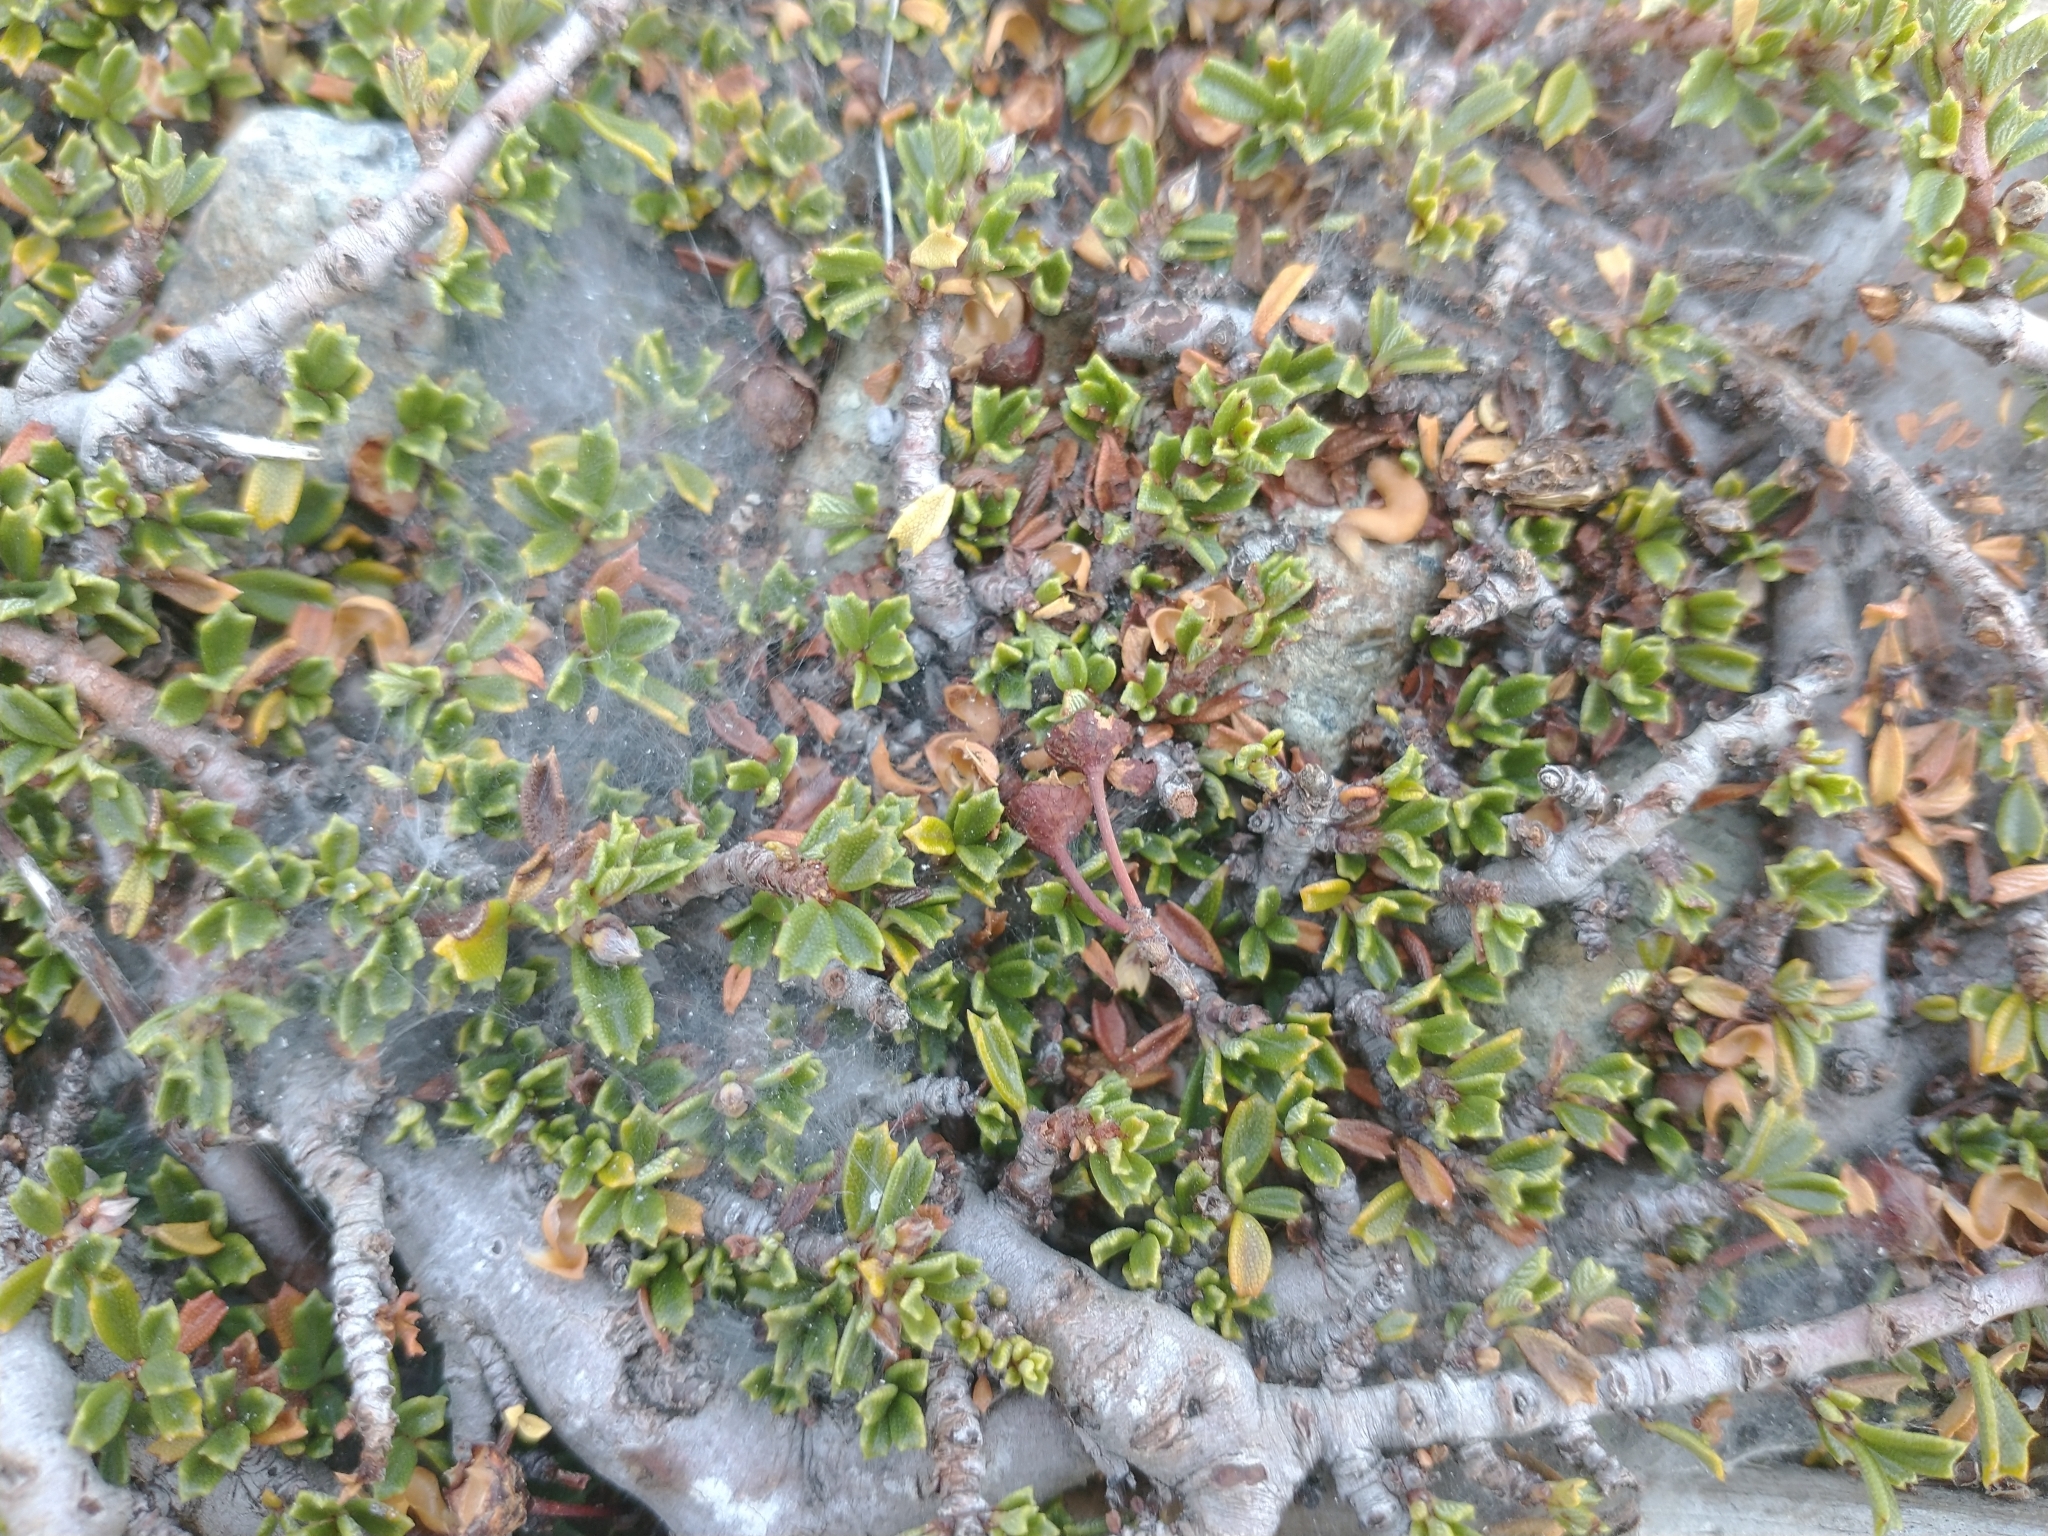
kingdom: Plantae
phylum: Tracheophyta
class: Magnoliopsida
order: Rosales
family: Rhamnaceae
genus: Ceanothus
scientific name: Ceanothus pumilus
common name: Siskiyou-mat
